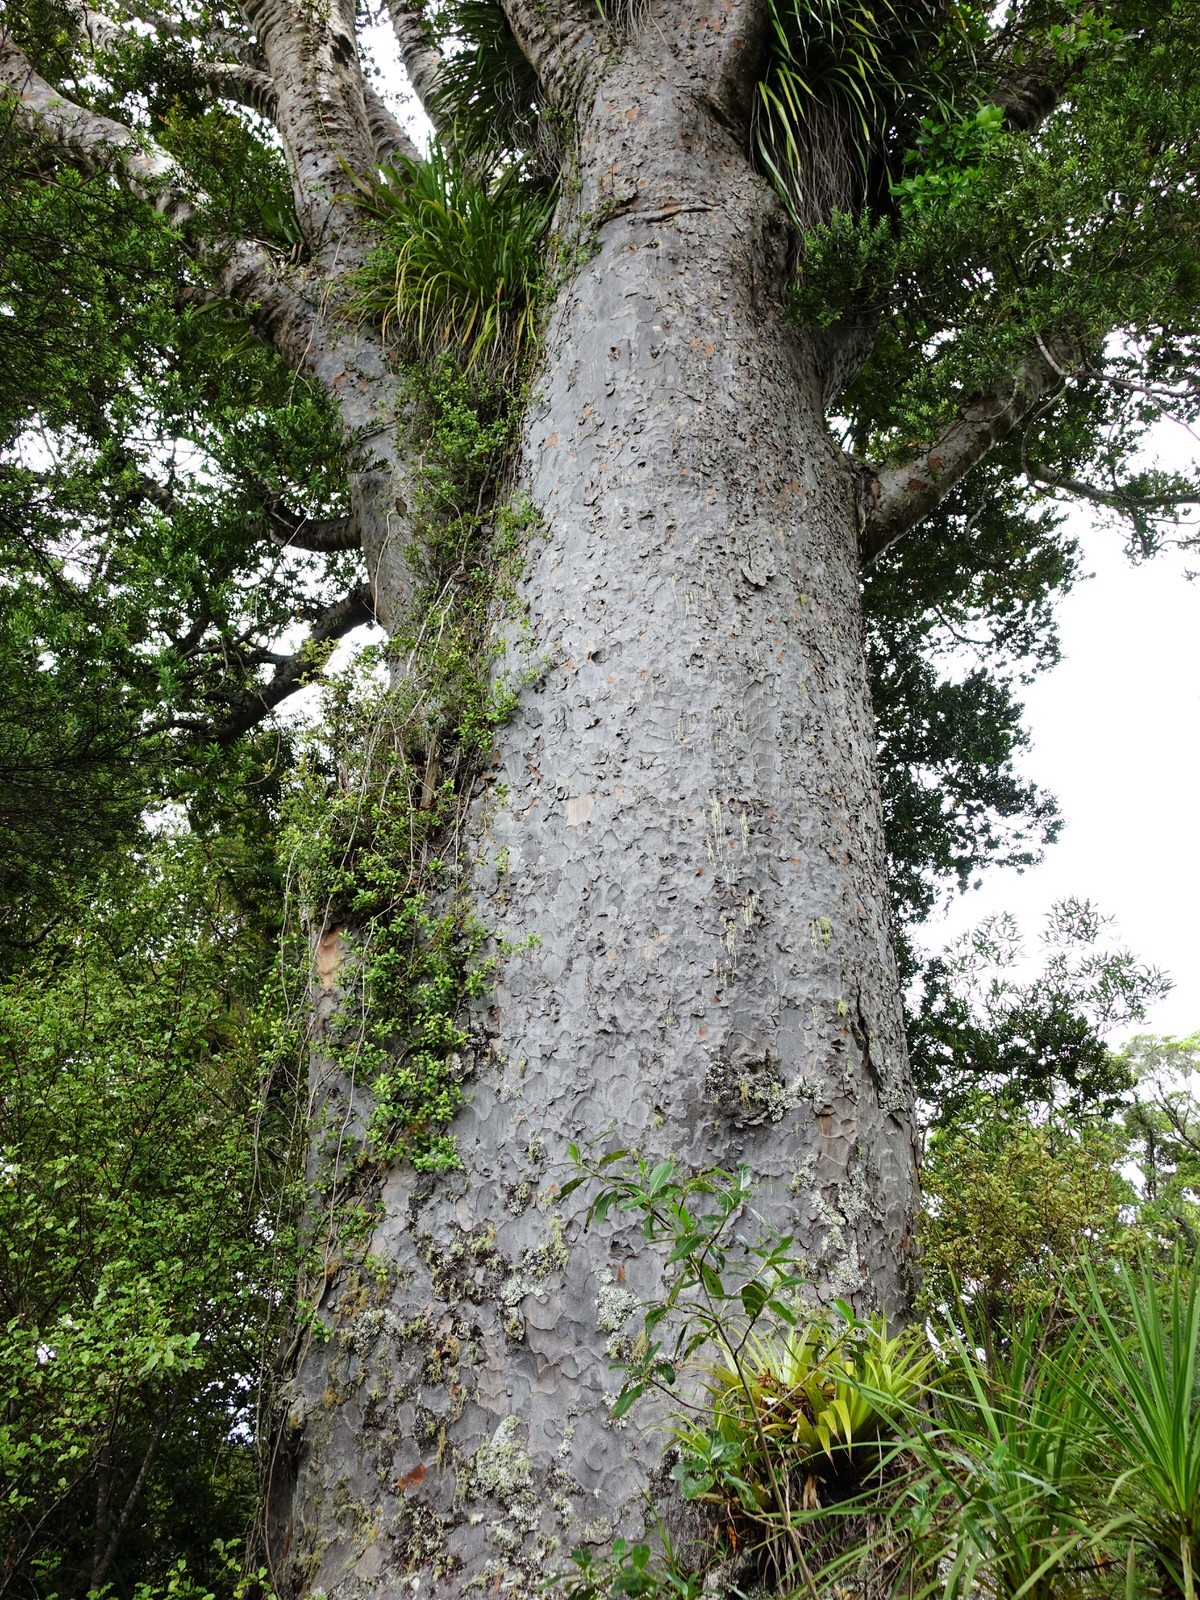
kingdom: Plantae
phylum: Tracheophyta
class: Pinopsida
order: Pinales
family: Araucariaceae
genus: Agathis
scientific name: Agathis australis
